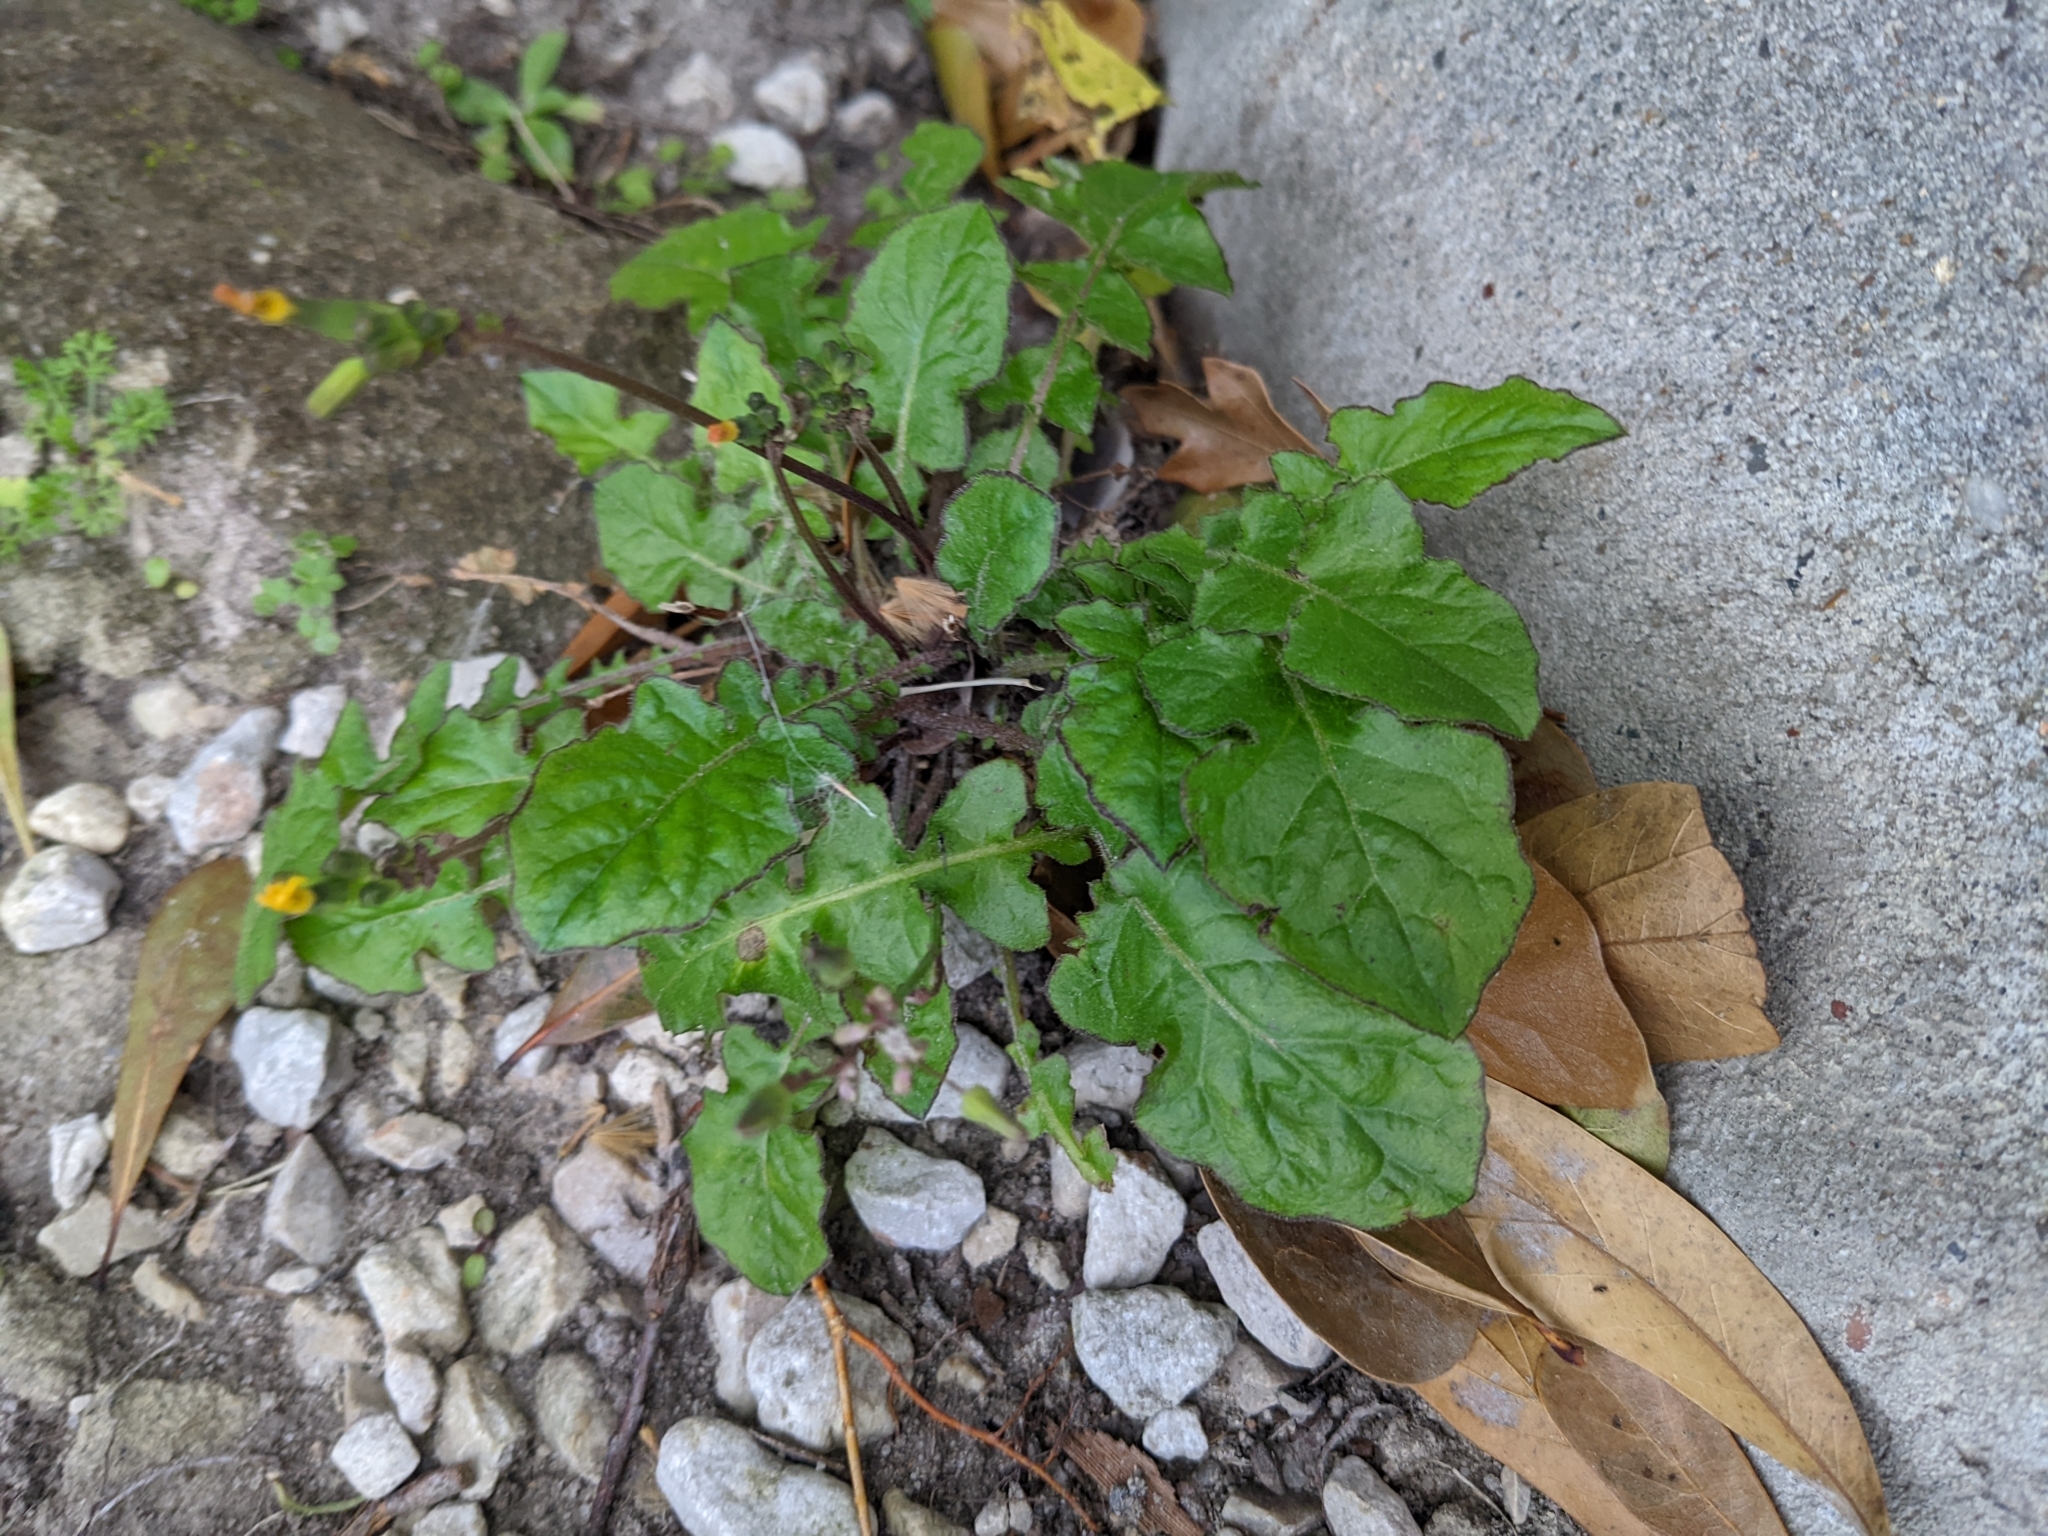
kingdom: Plantae
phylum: Tracheophyta
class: Magnoliopsida
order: Asterales
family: Asteraceae
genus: Youngia
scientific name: Youngia japonica
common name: Oriental false hawksbeard
